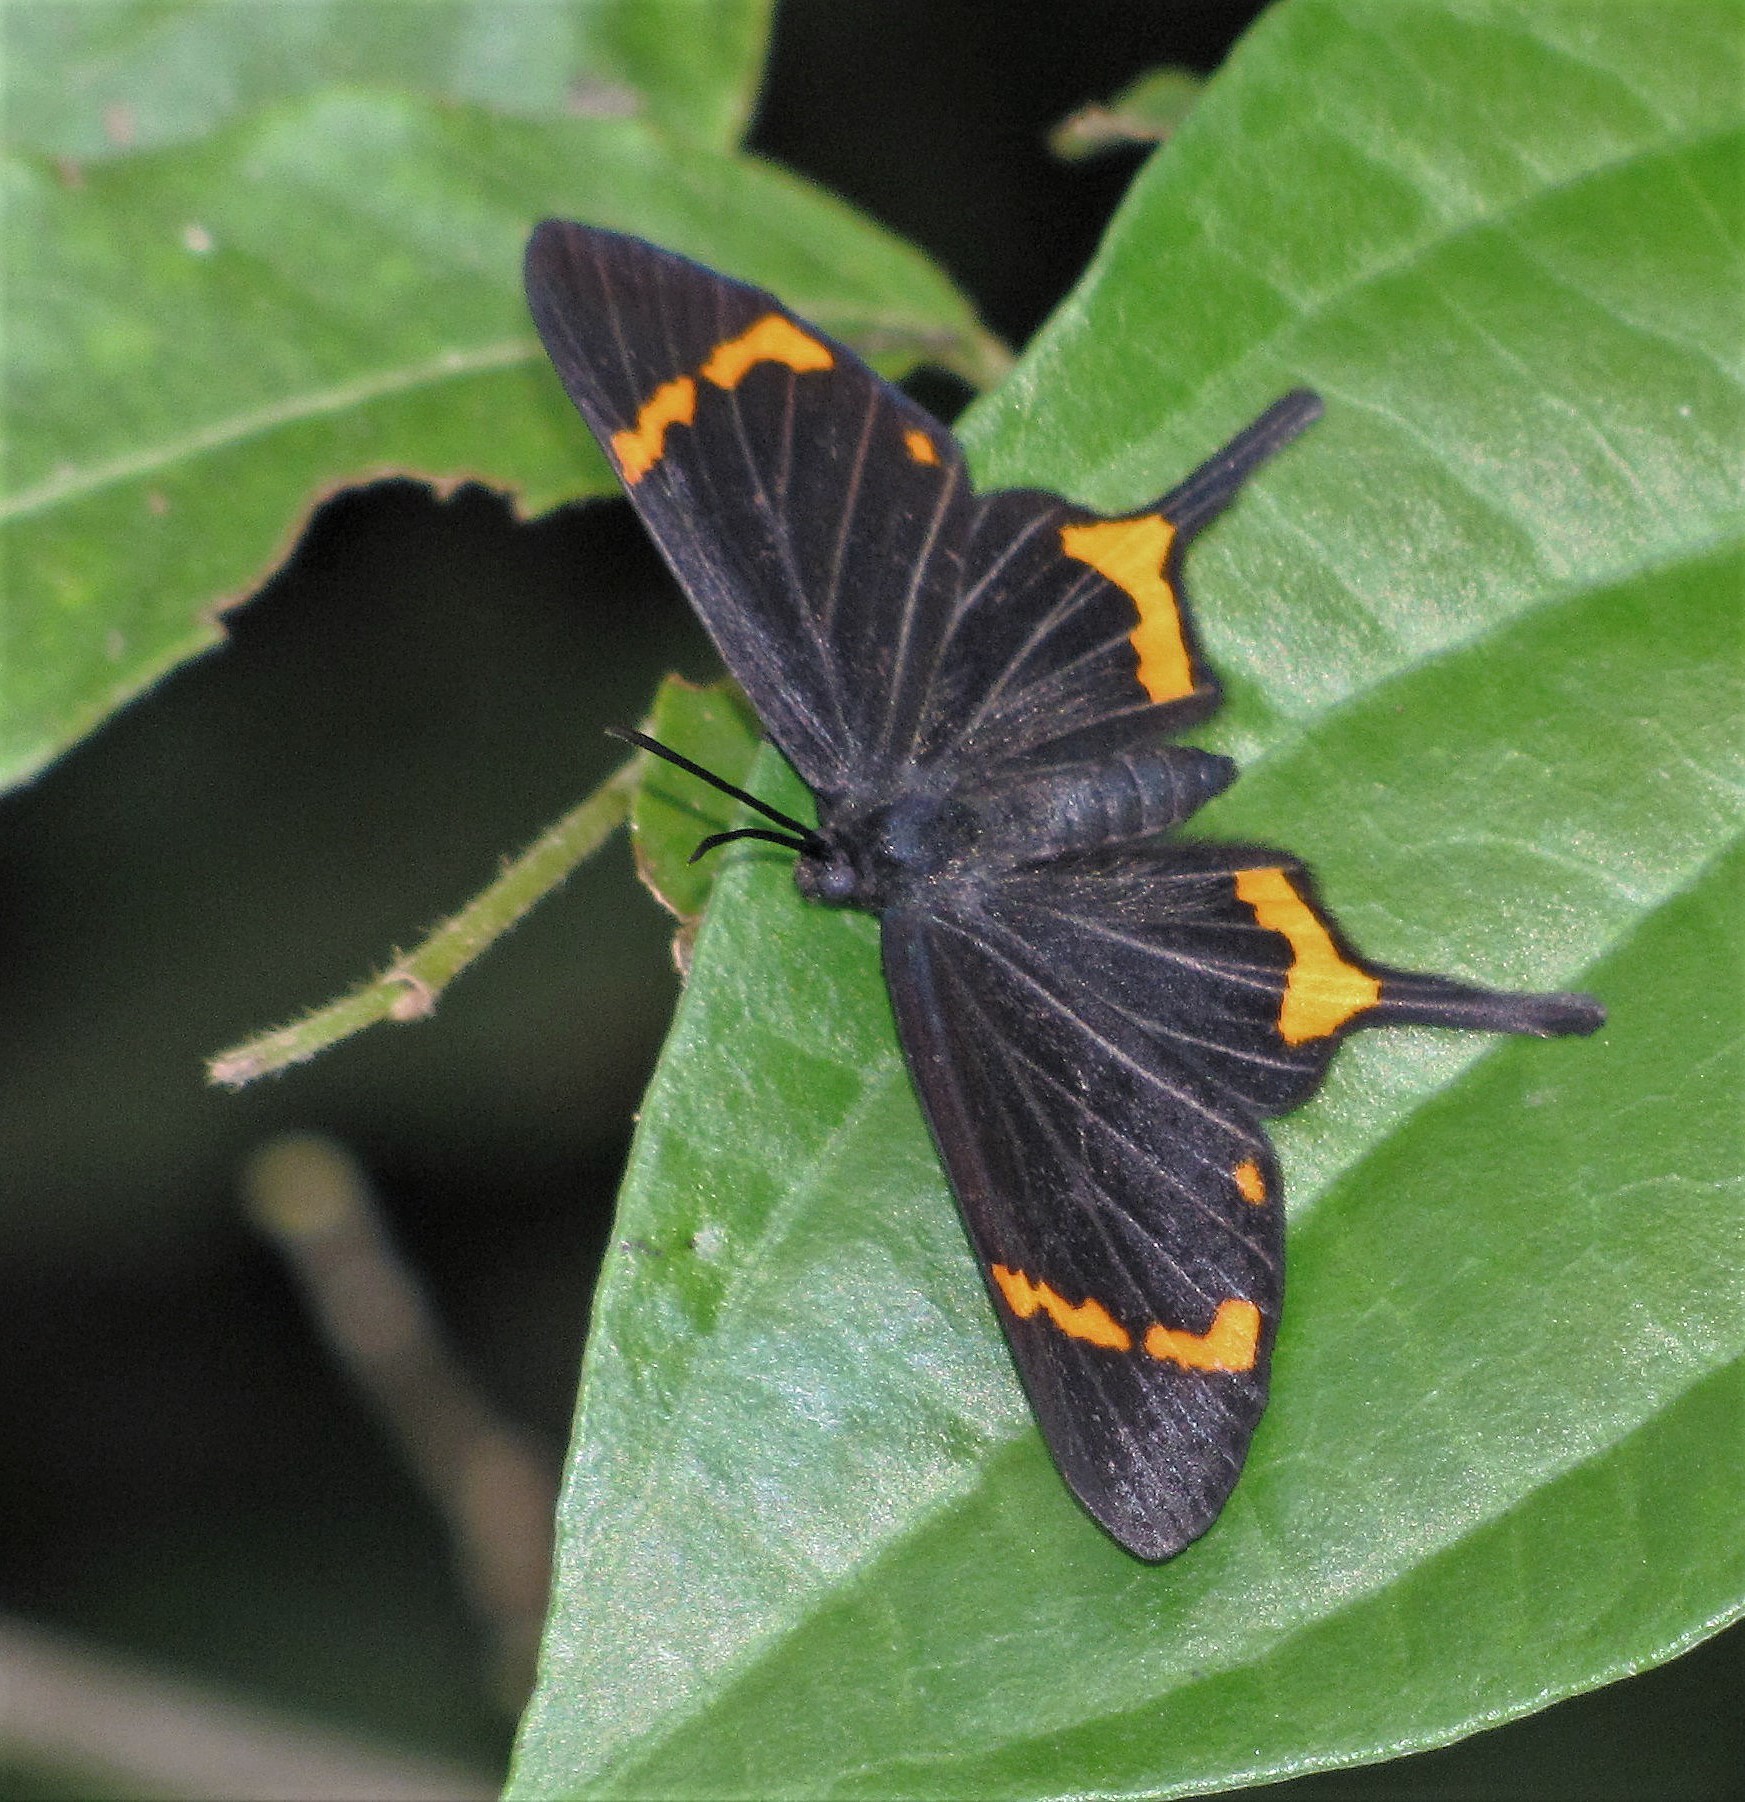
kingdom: Animalia
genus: Barbicornis
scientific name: Barbicornis basilis
